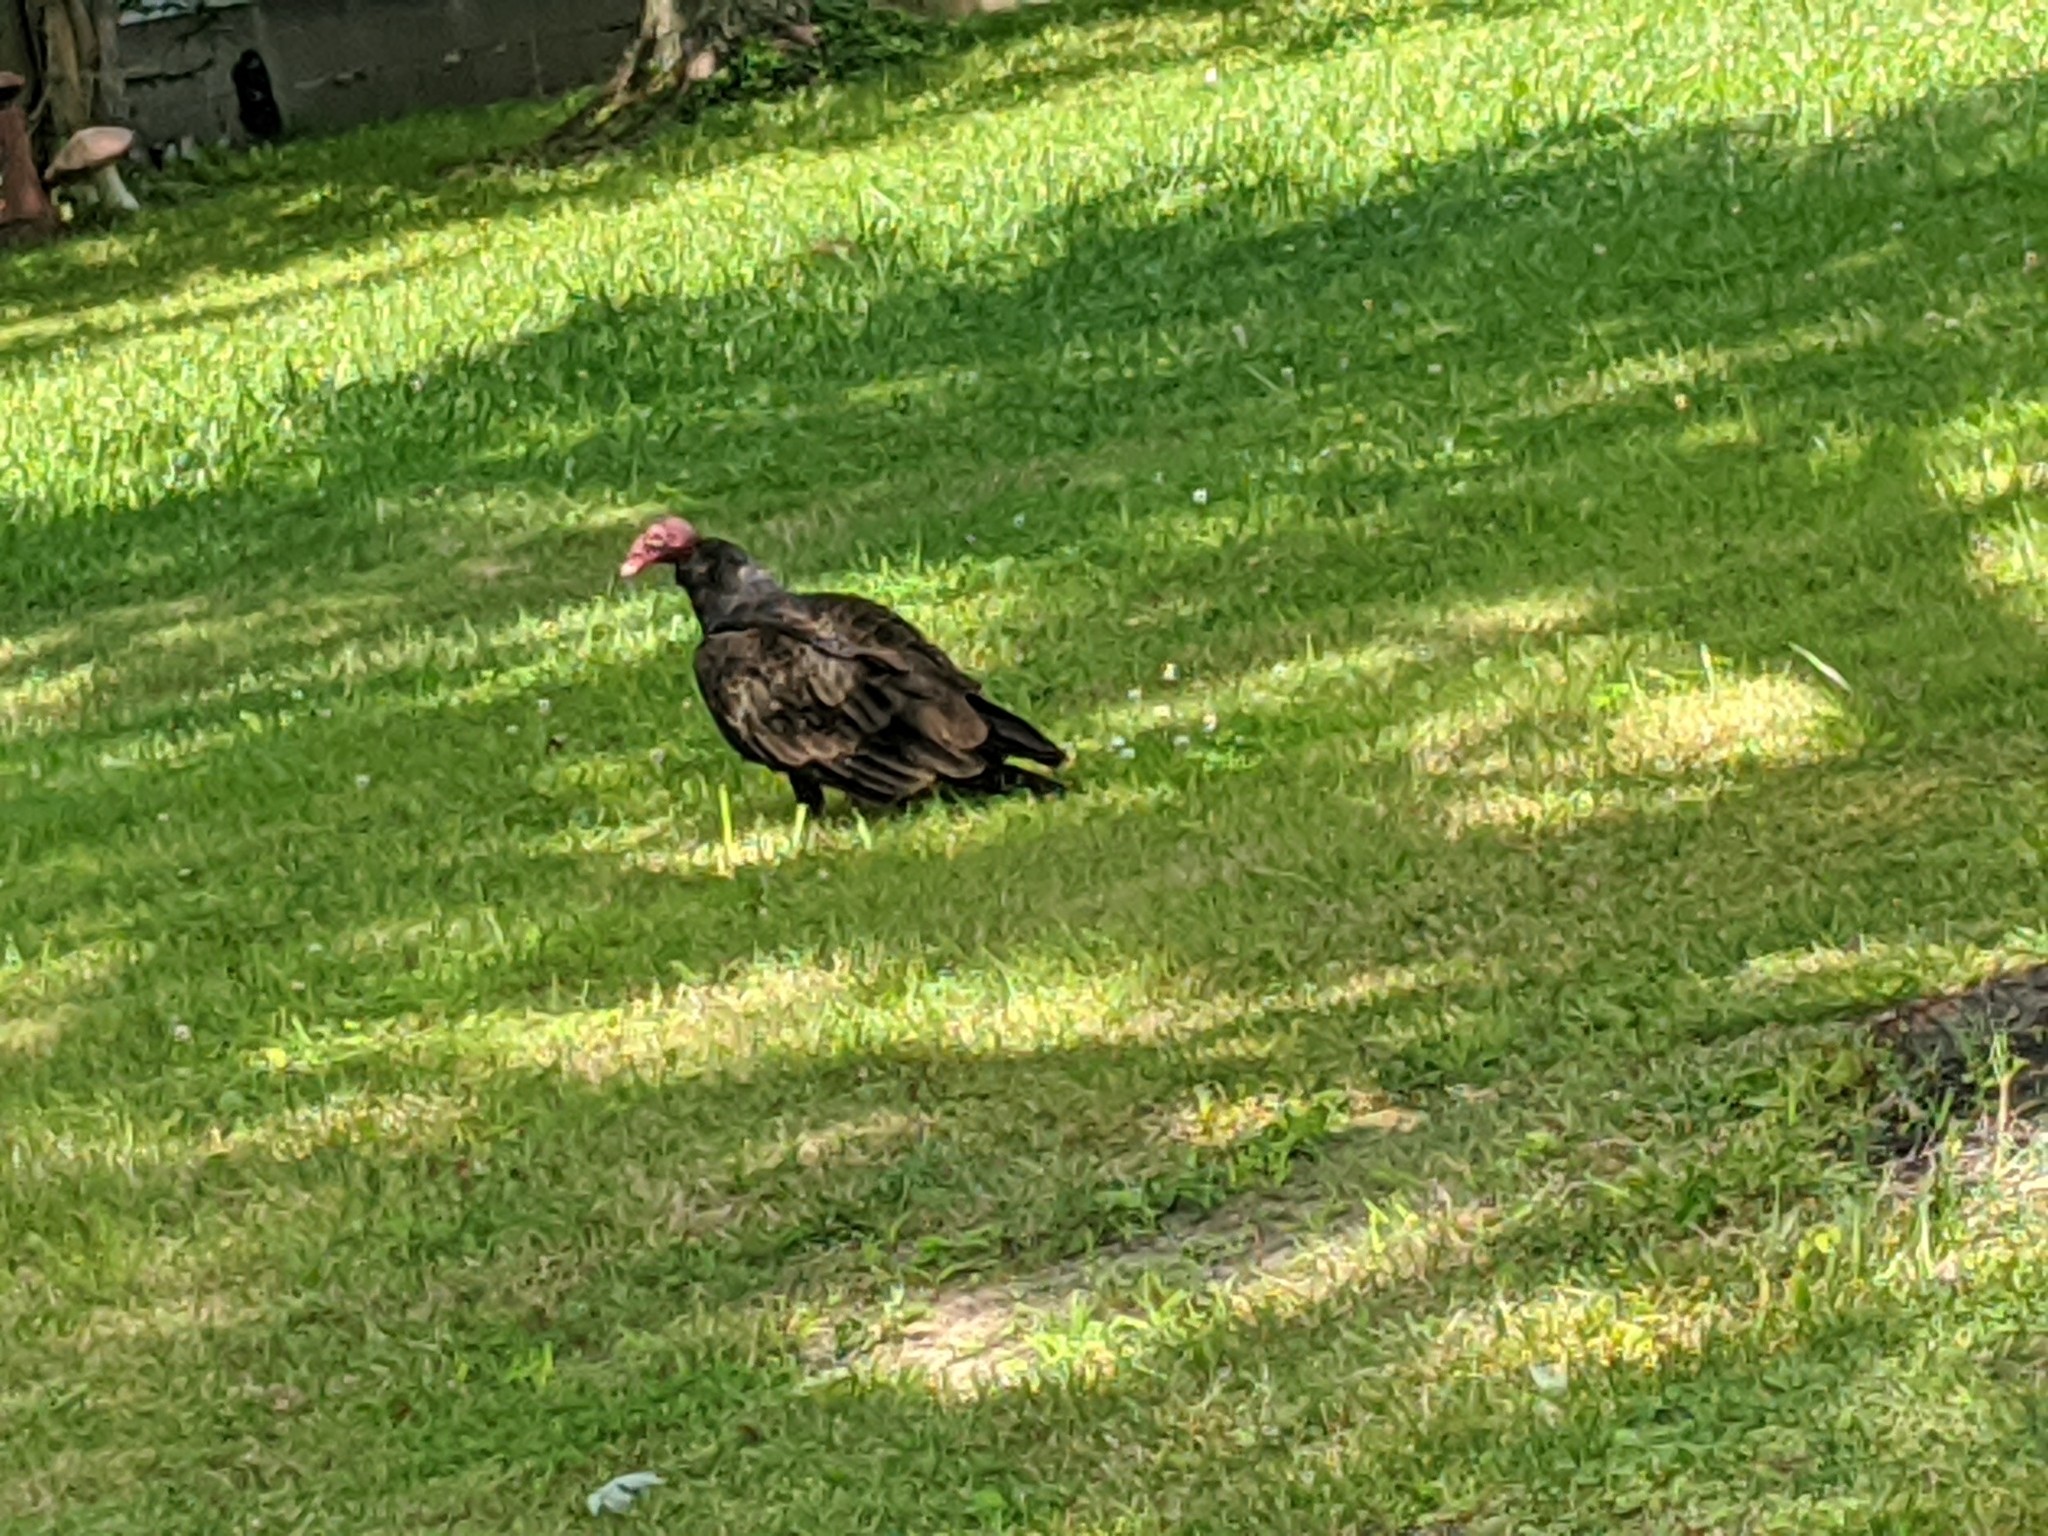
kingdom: Animalia
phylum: Chordata
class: Aves
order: Accipitriformes
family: Cathartidae
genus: Cathartes
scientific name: Cathartes aura
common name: Turkey vulture
